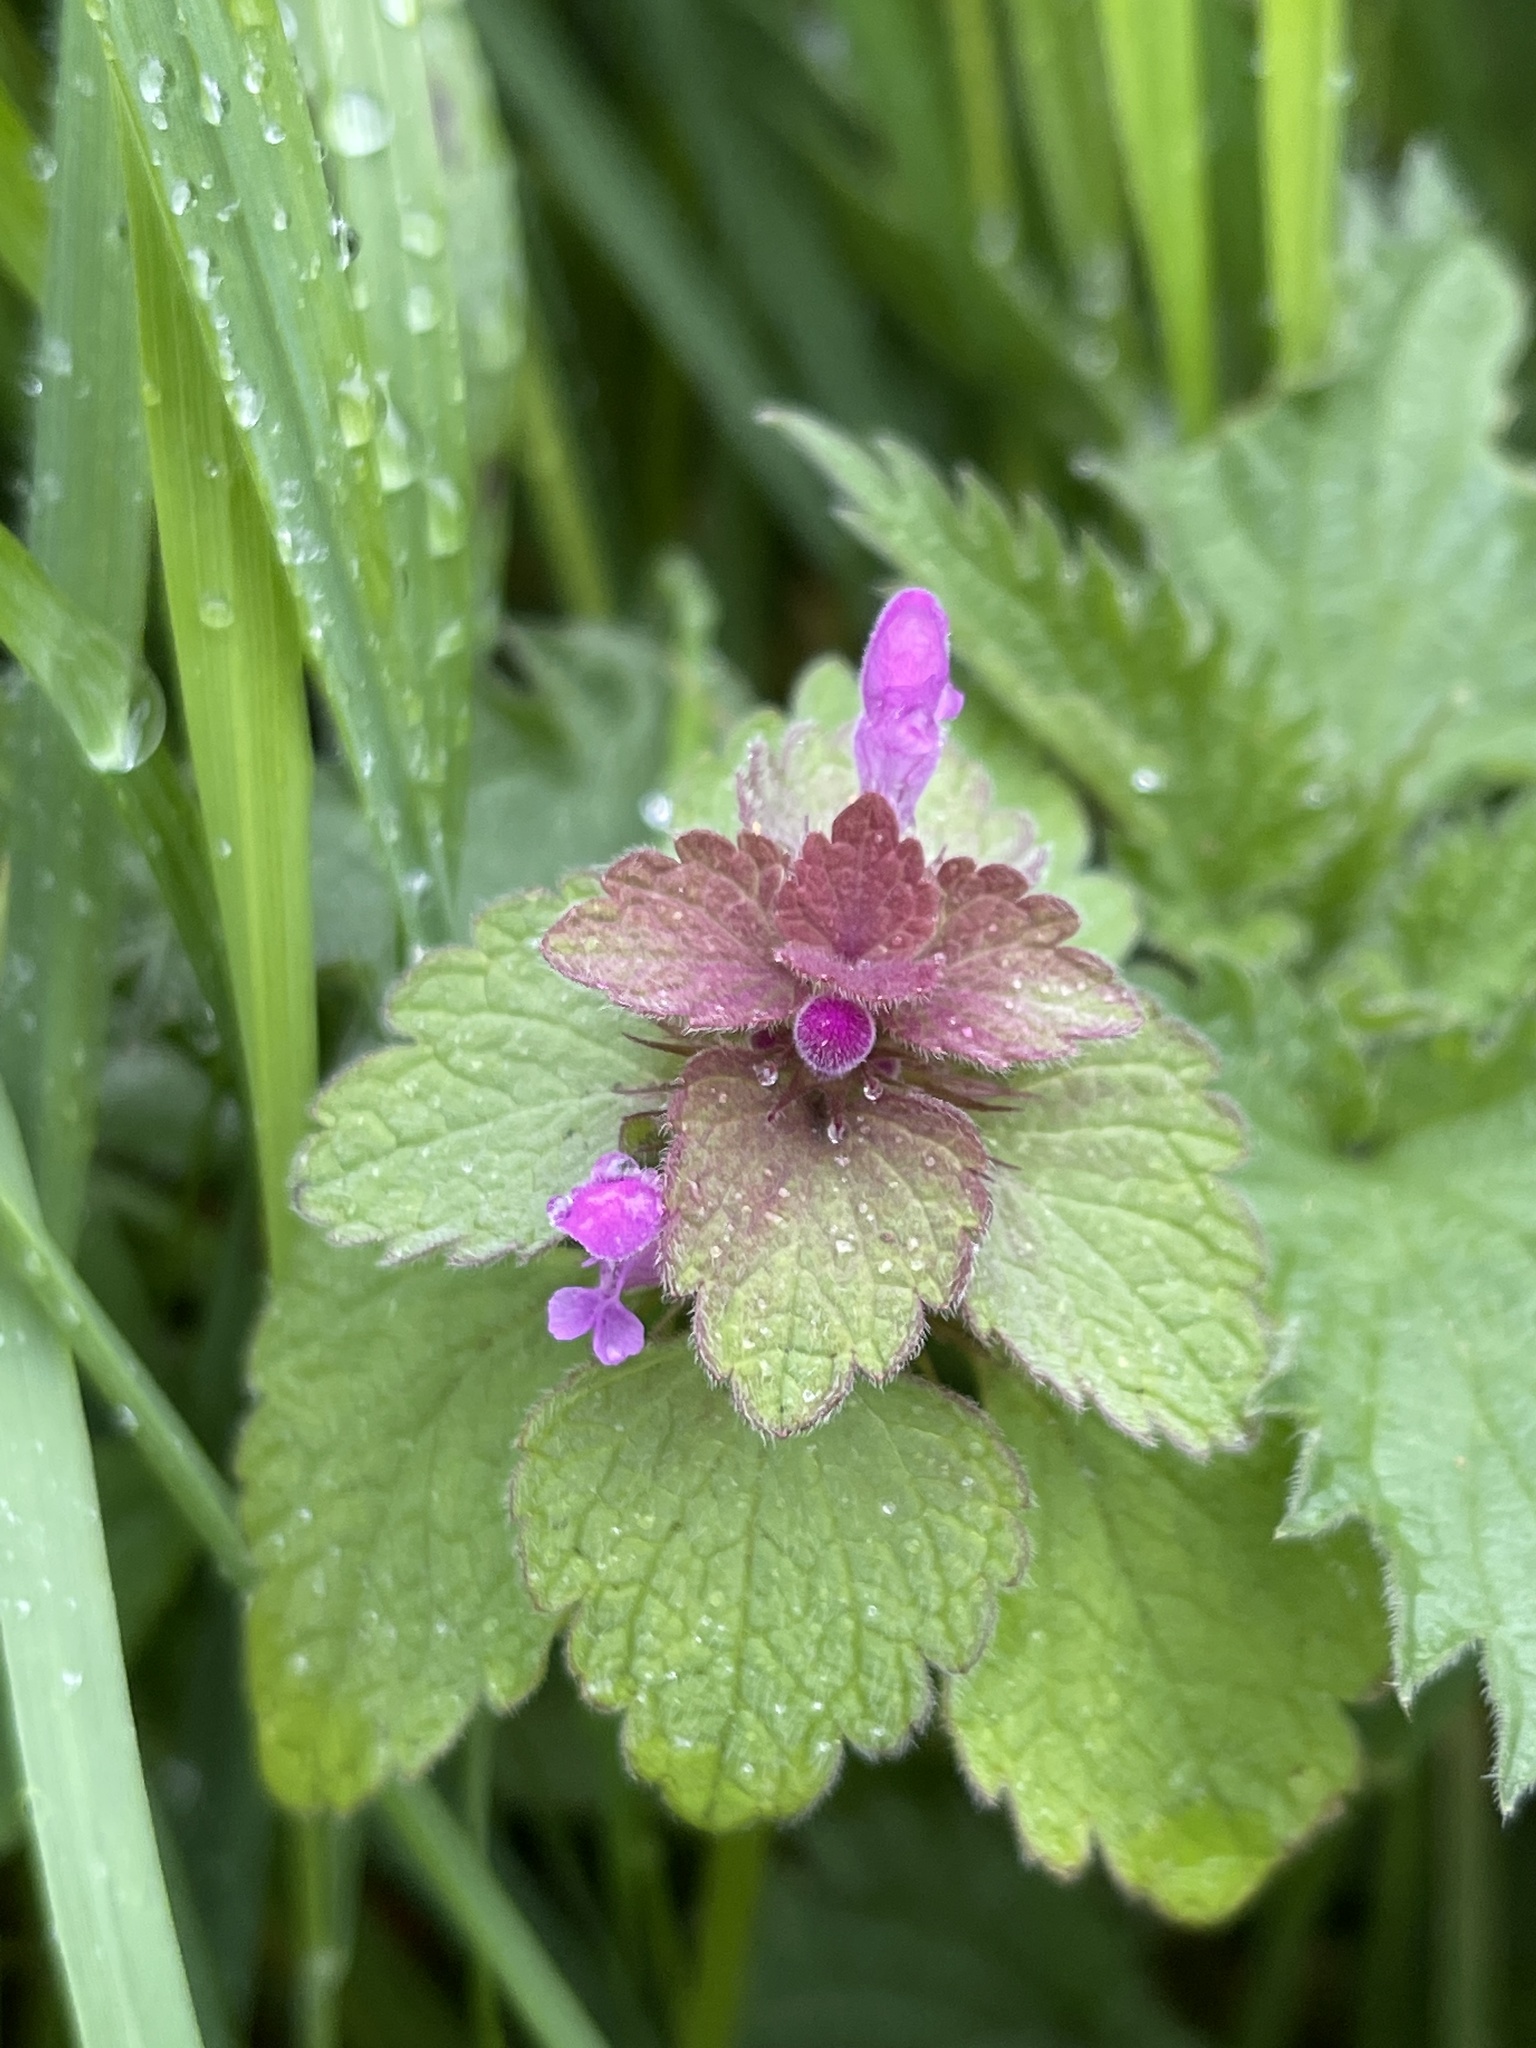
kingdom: Plantae
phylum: Tracheophyta
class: Magnoliopsida
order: Lamiales
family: Lamiaceae
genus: Lamium
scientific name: Lamium purpureum
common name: Red dead-nettle
